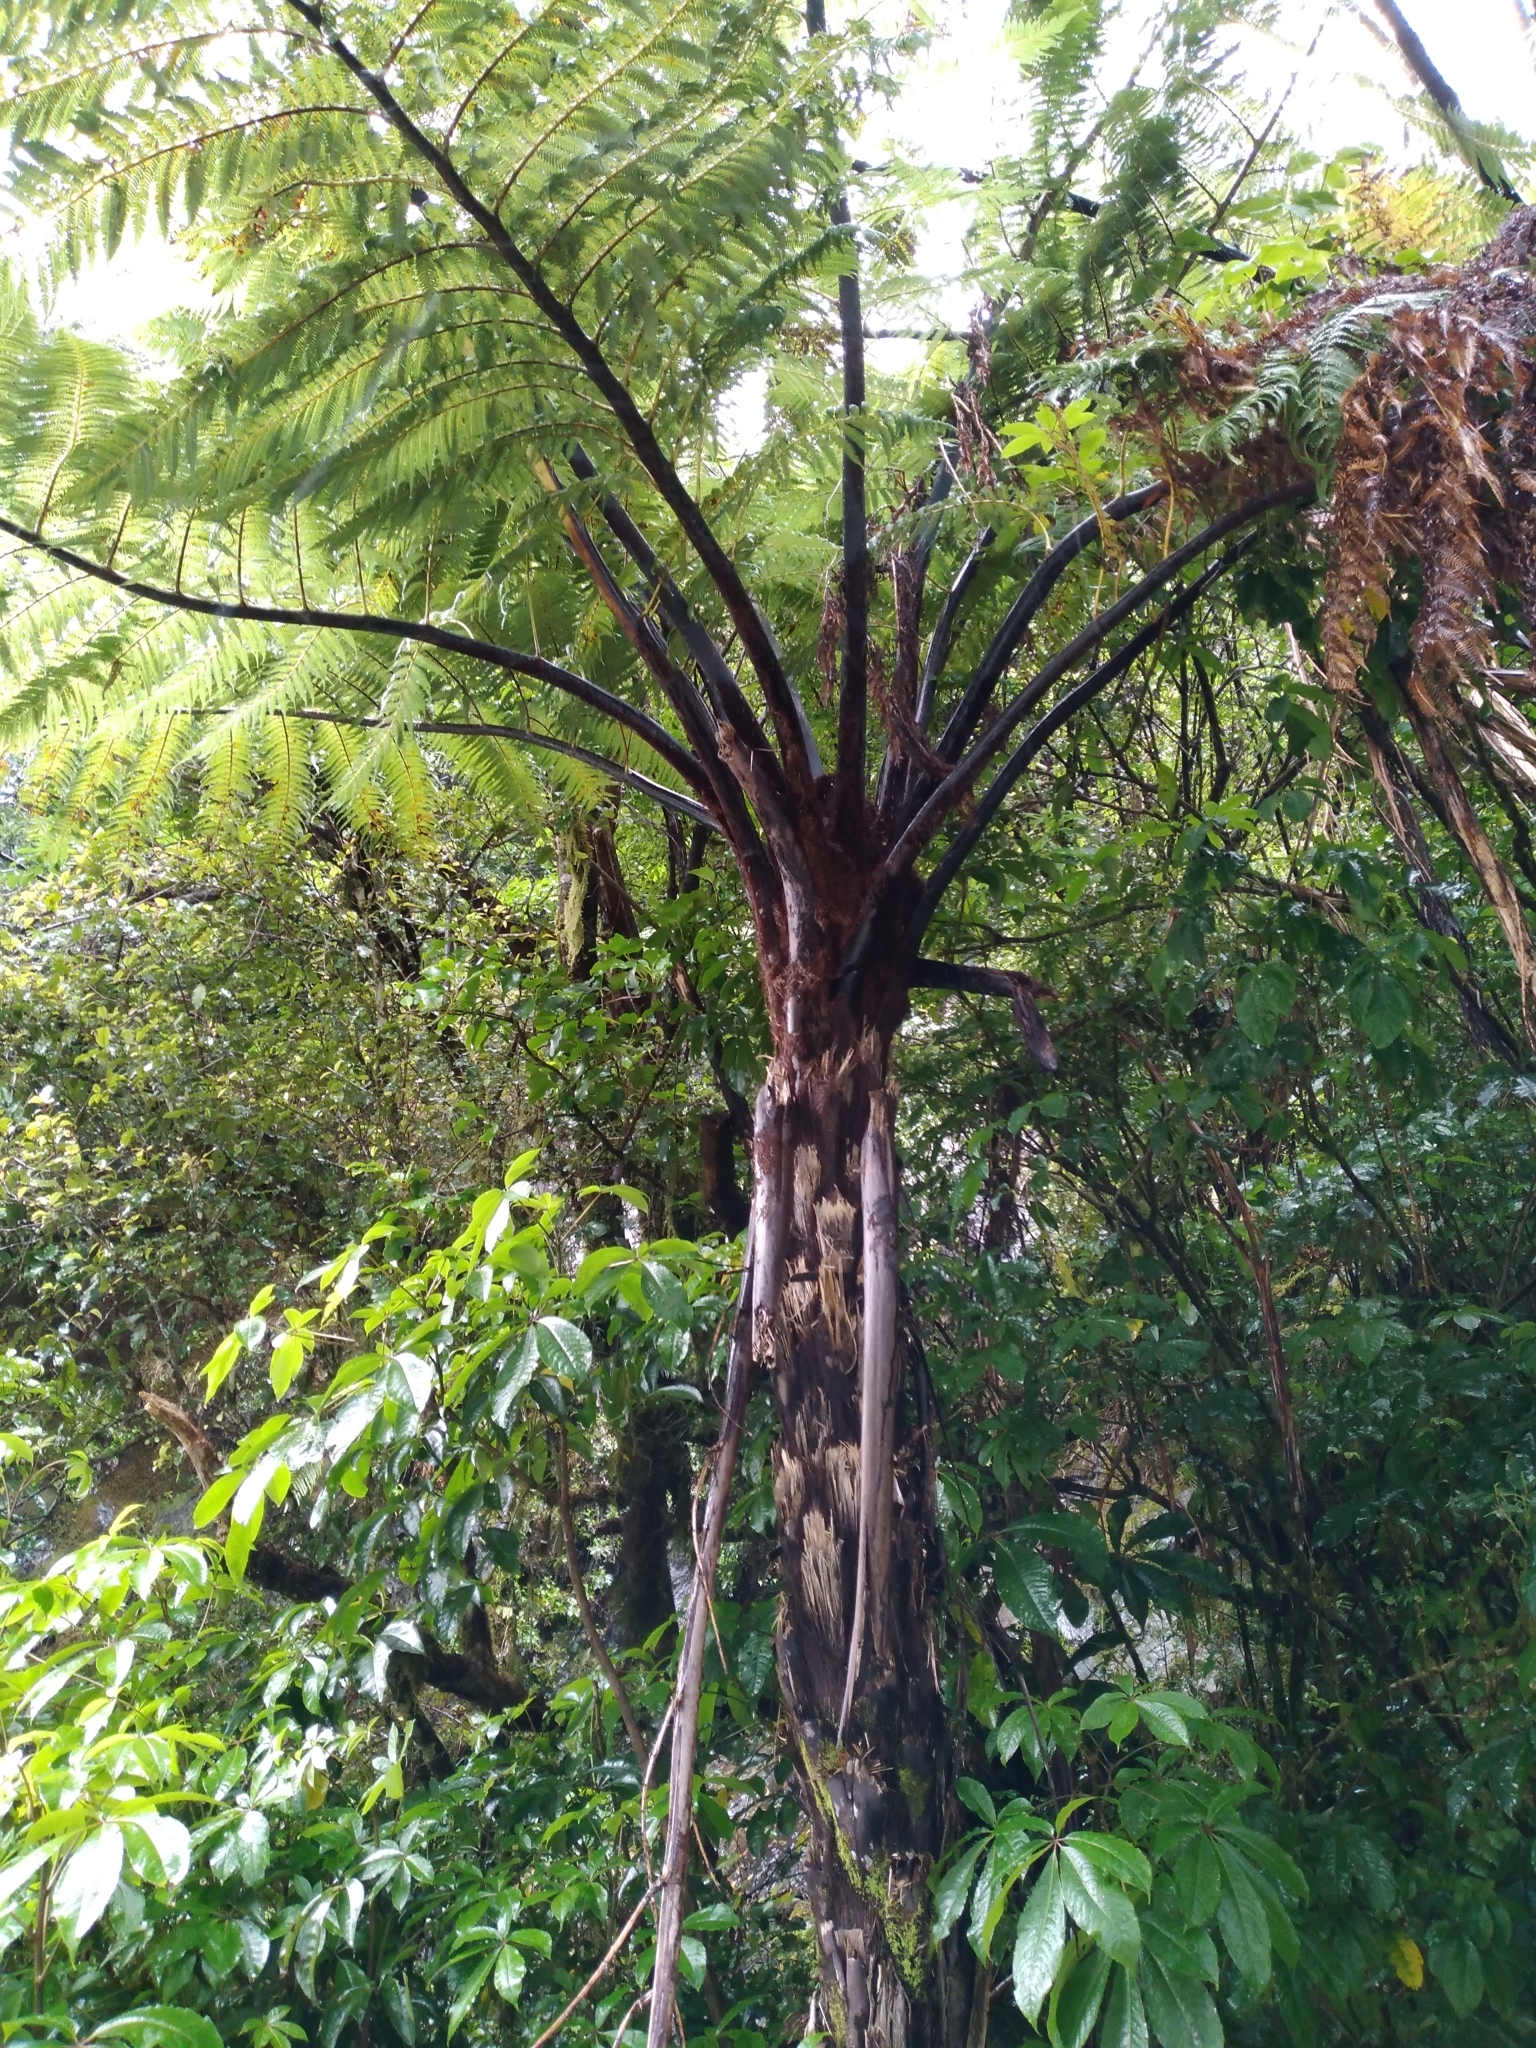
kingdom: Plantae
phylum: Tracheophyta
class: Polypodiopsida
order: Cyatheales
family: Cyatheaceae
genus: Sphaeropteris
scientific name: Sphaeropteris medullaris
